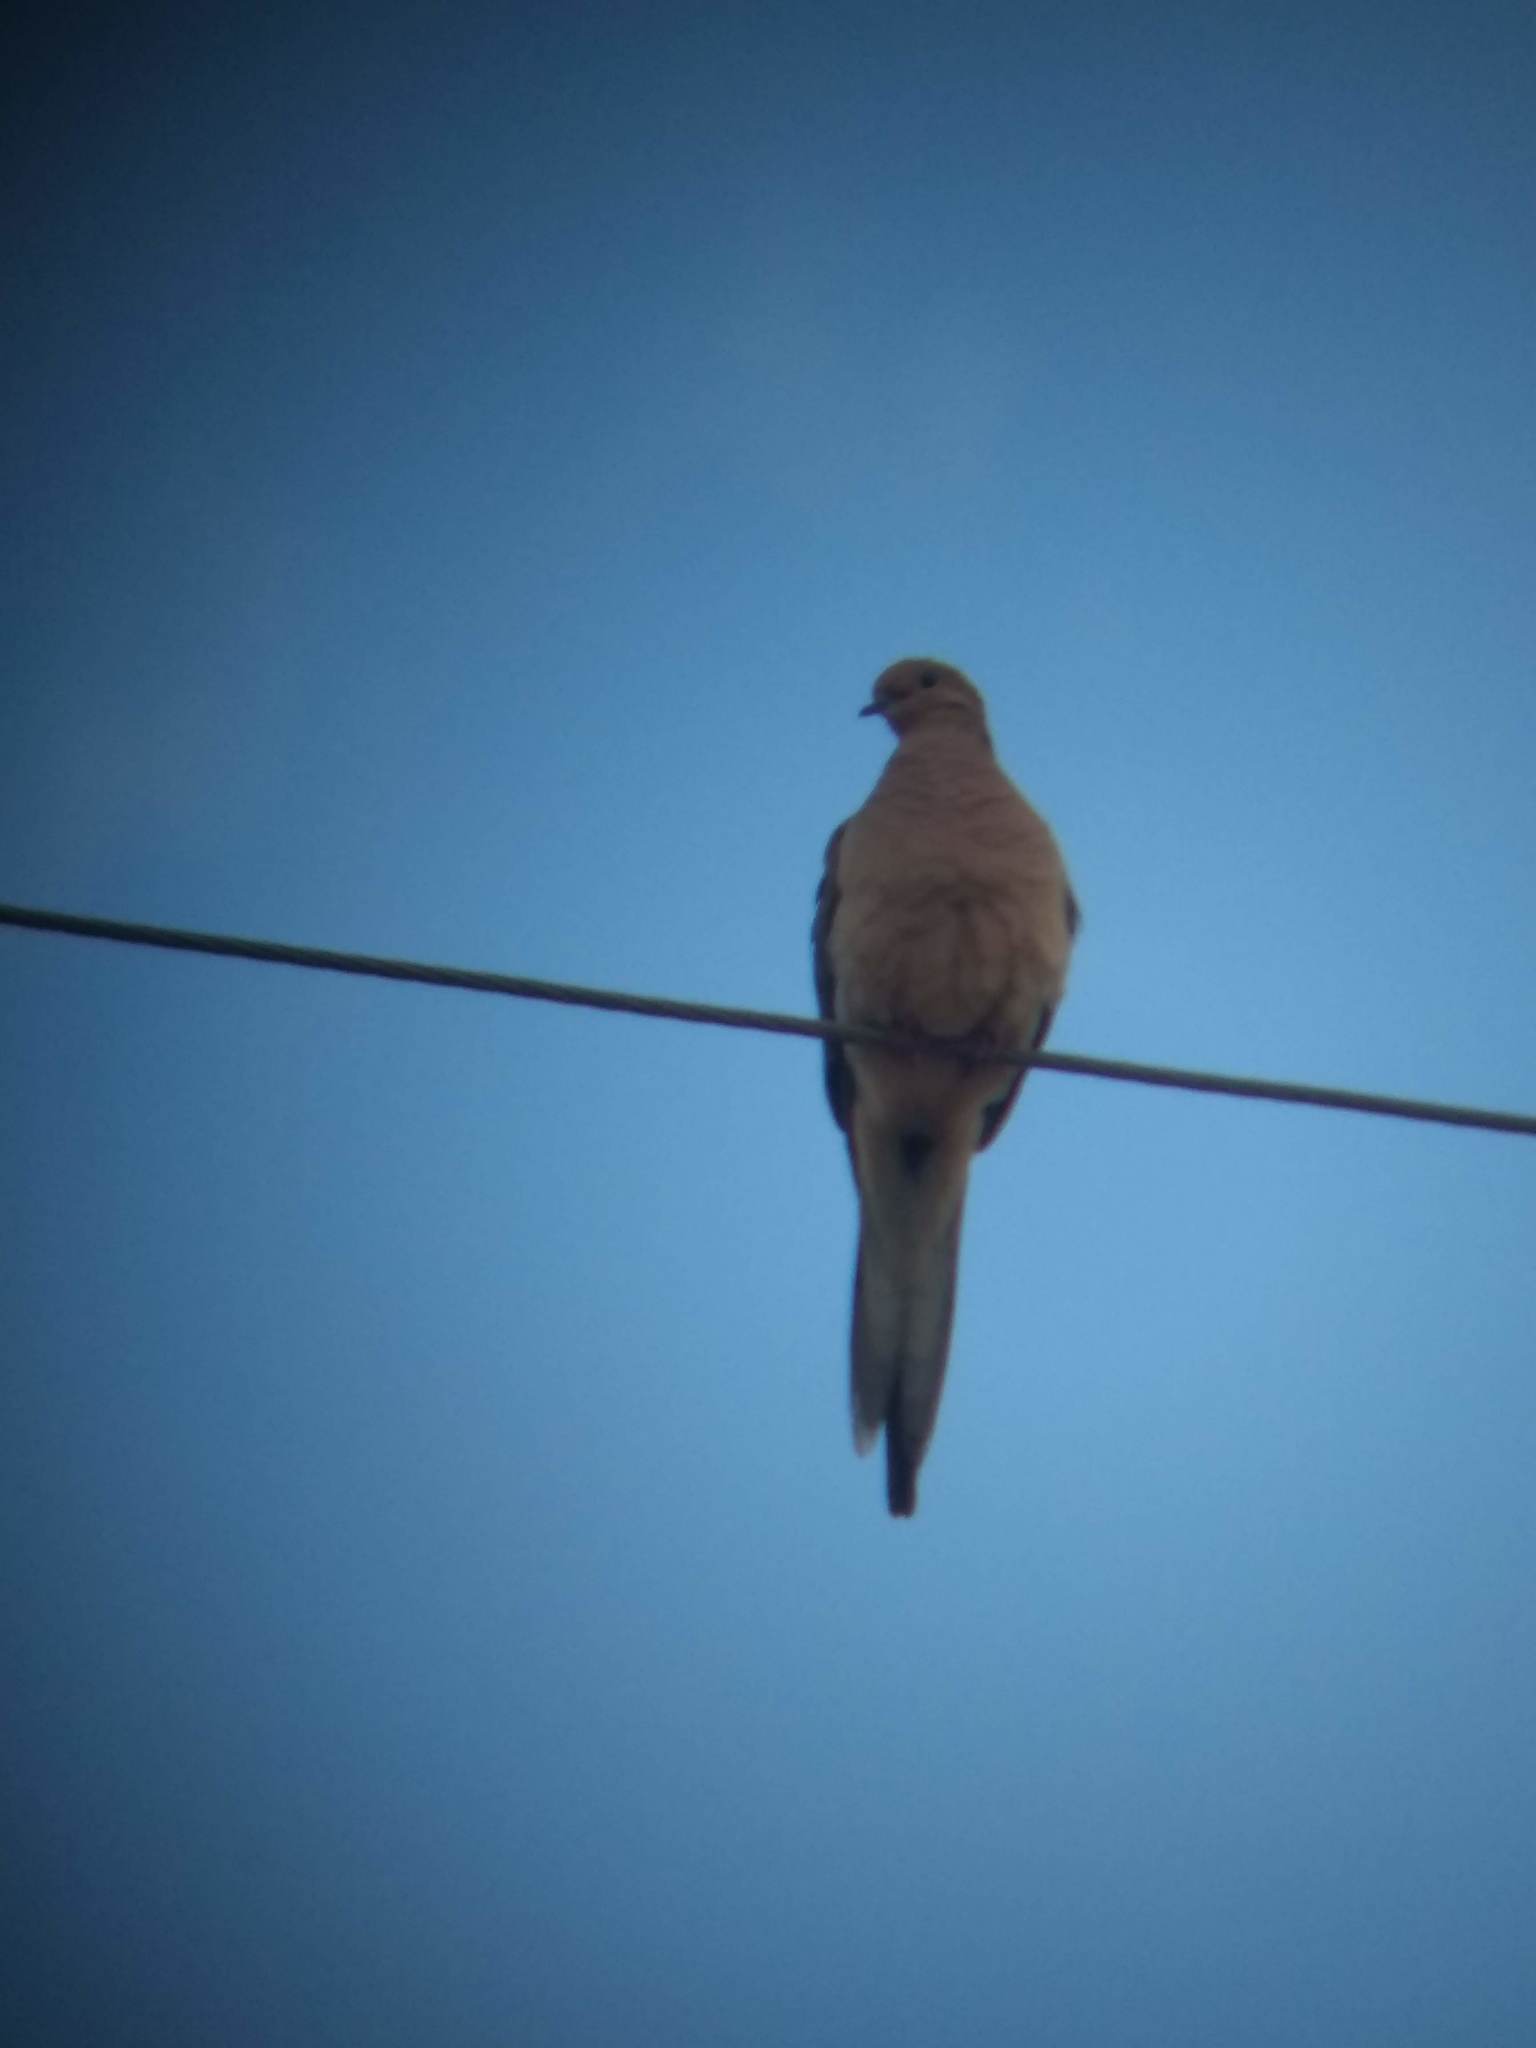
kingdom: Animalia
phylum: Chordata
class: Aves
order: Columbiformes
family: Columbidae
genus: Zenaida
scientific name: Zenaida macroura
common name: Mourning dove
